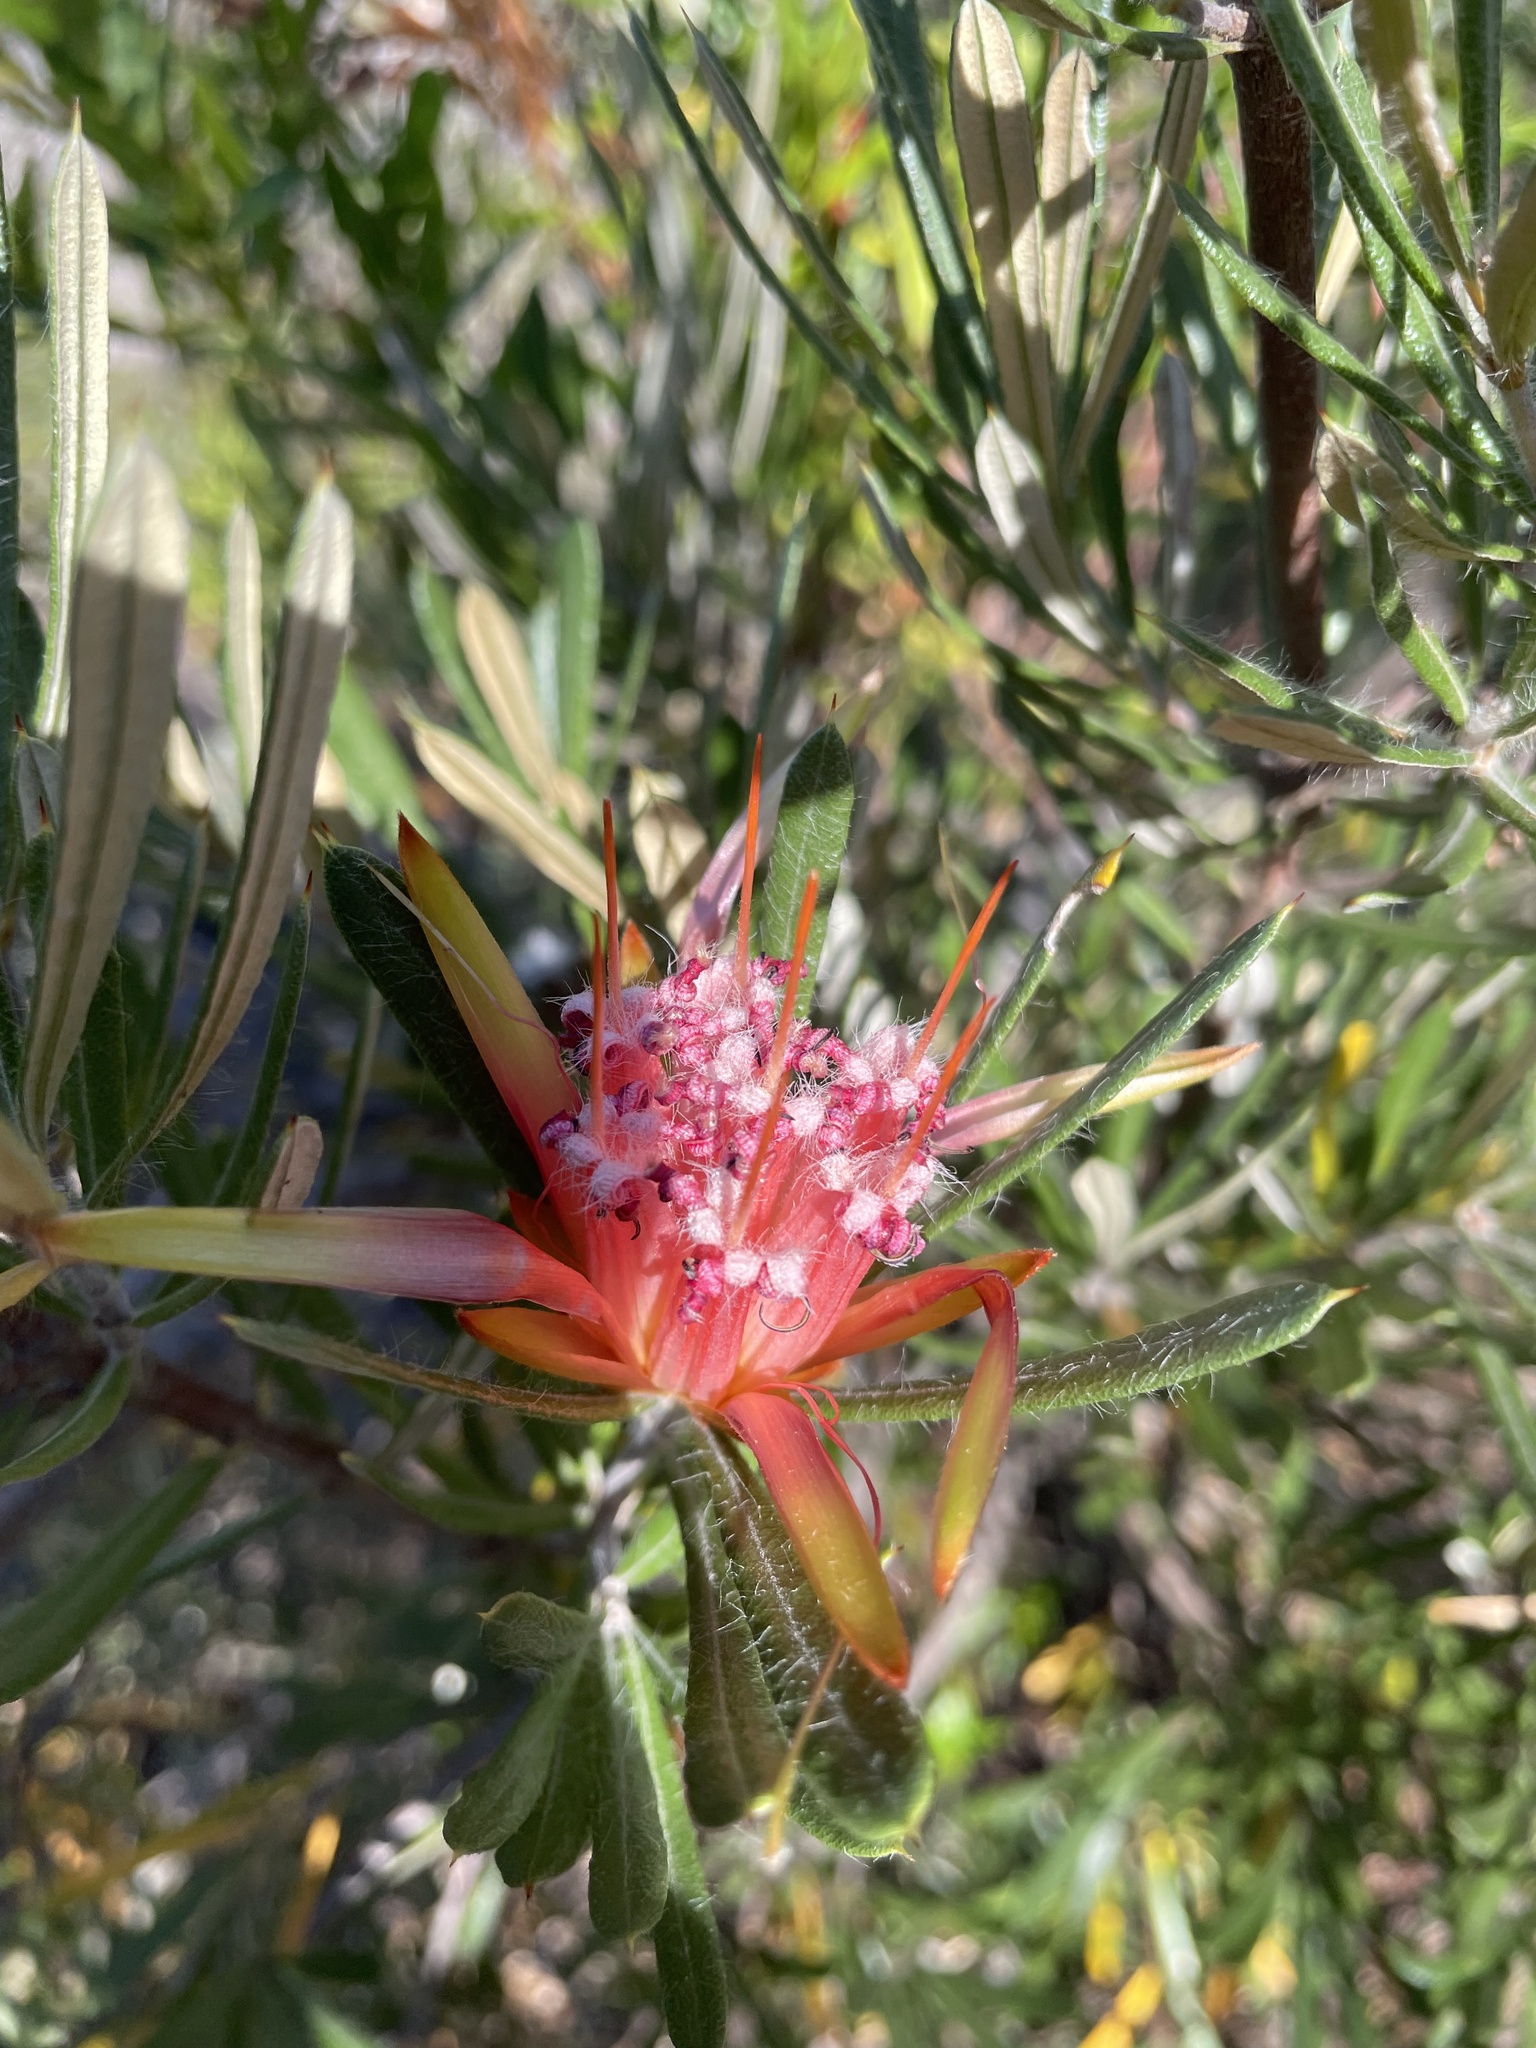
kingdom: Plantae
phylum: Tracheophyta
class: Magnoliopsida
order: Proteales
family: Proteaceae
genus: Lambertia
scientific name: Lambertia formosa
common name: Mountain-devil
